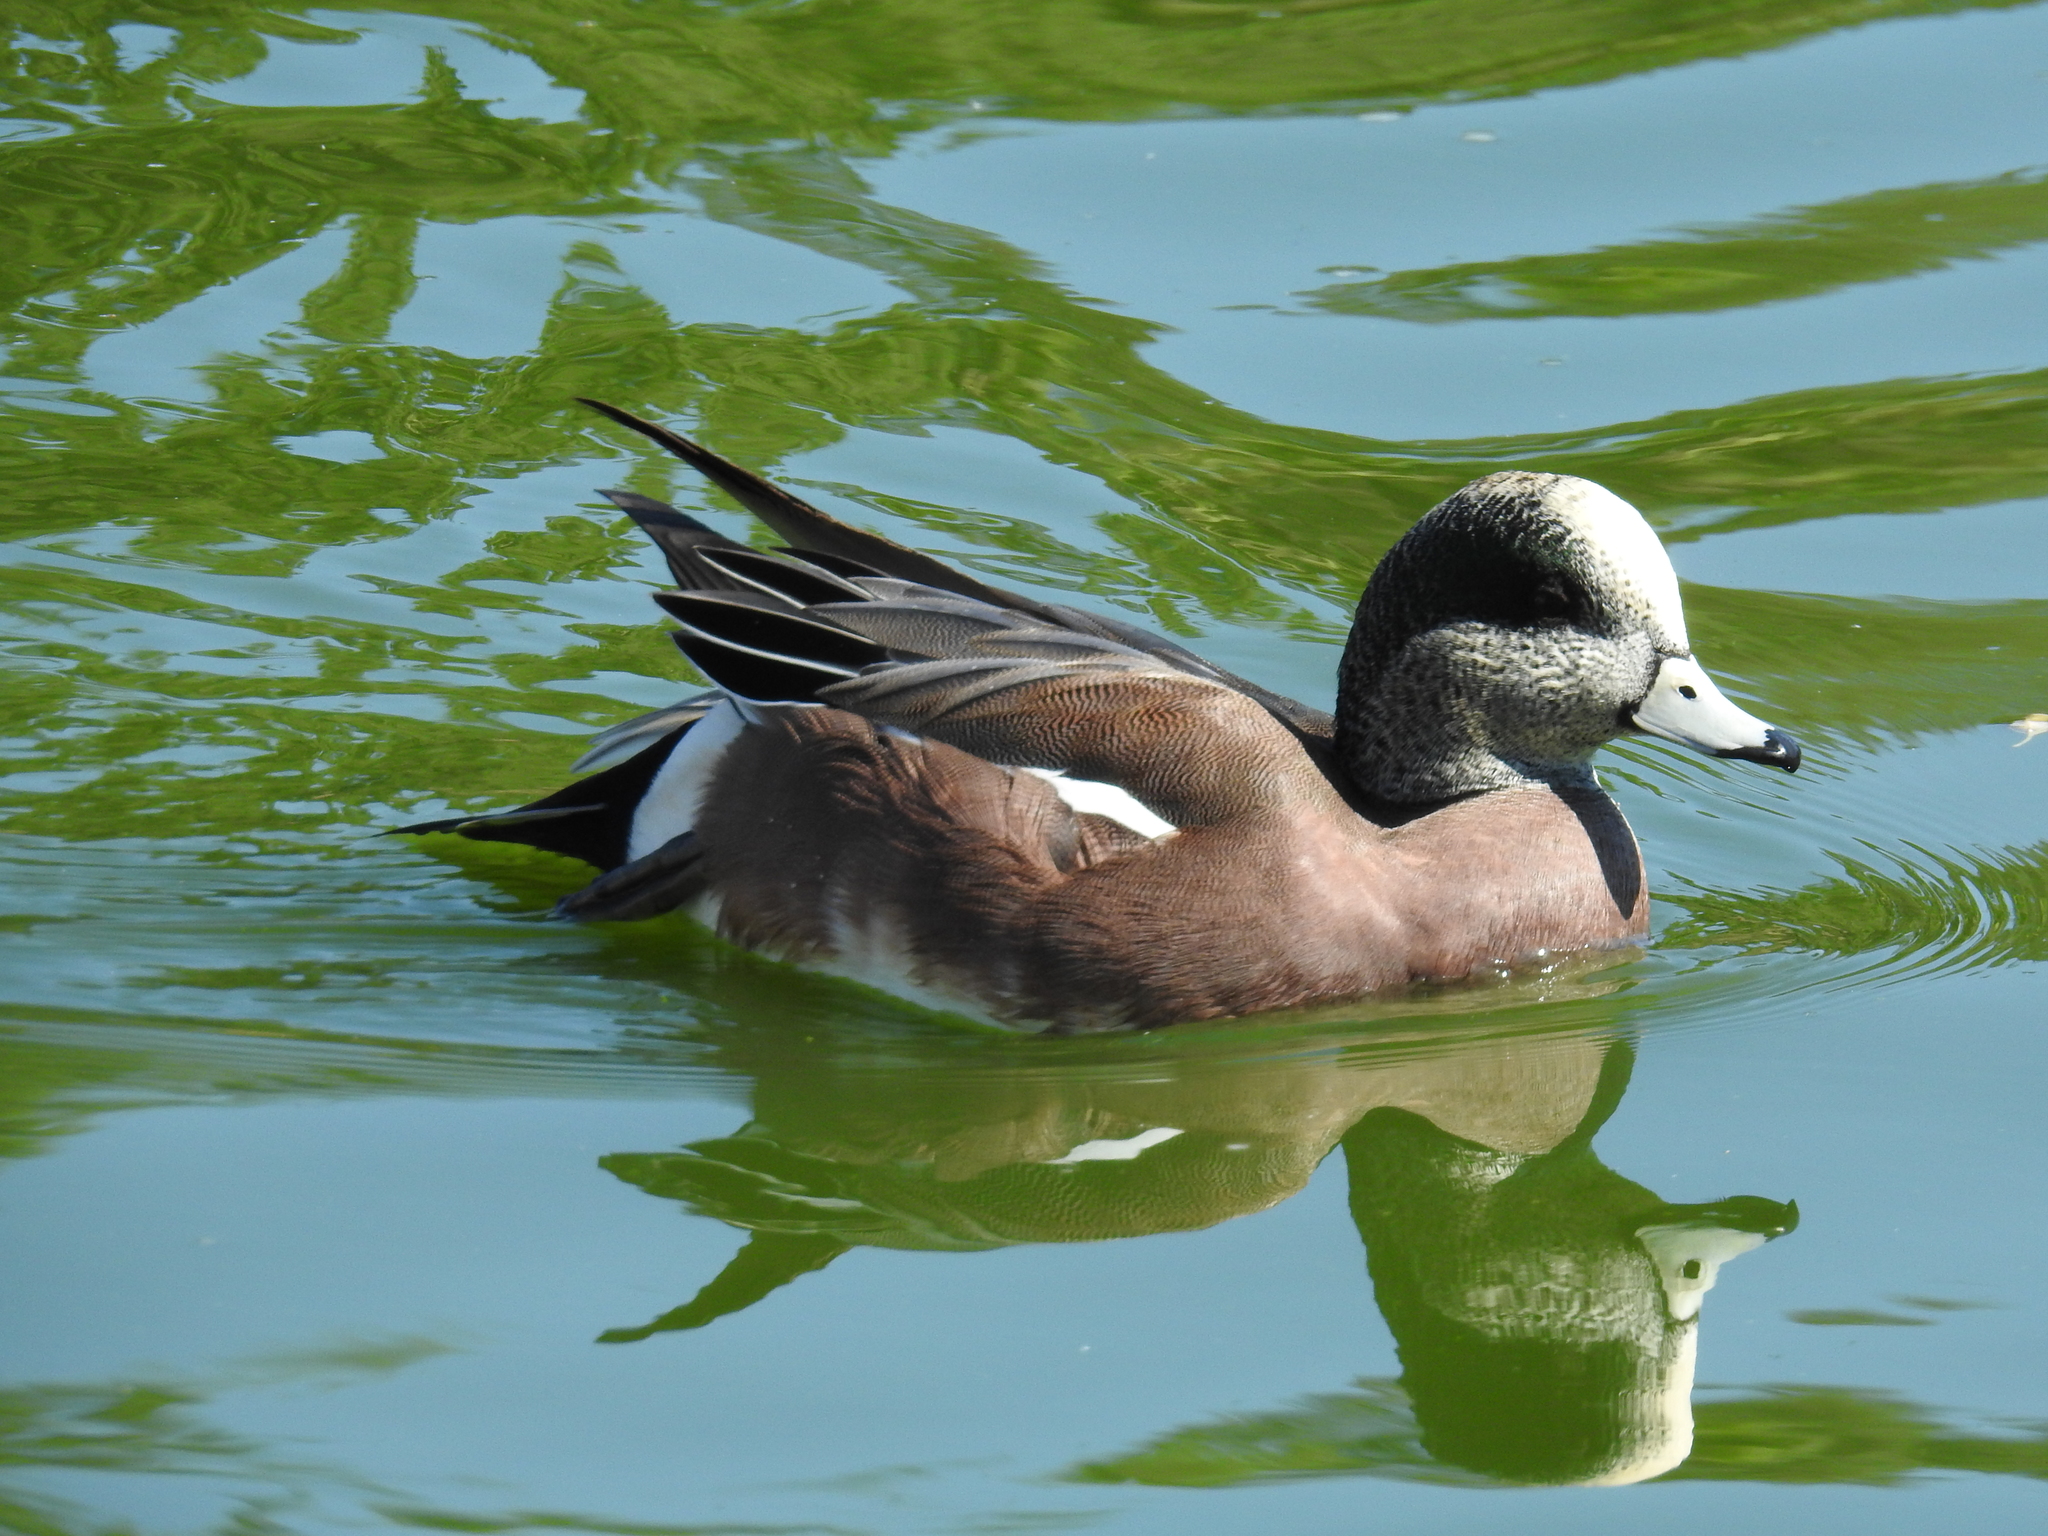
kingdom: Animalia
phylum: Chordata
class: Aves
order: Anseriformes
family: Anatidae
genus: Mareca
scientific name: Mareca americana
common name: American wigeon
